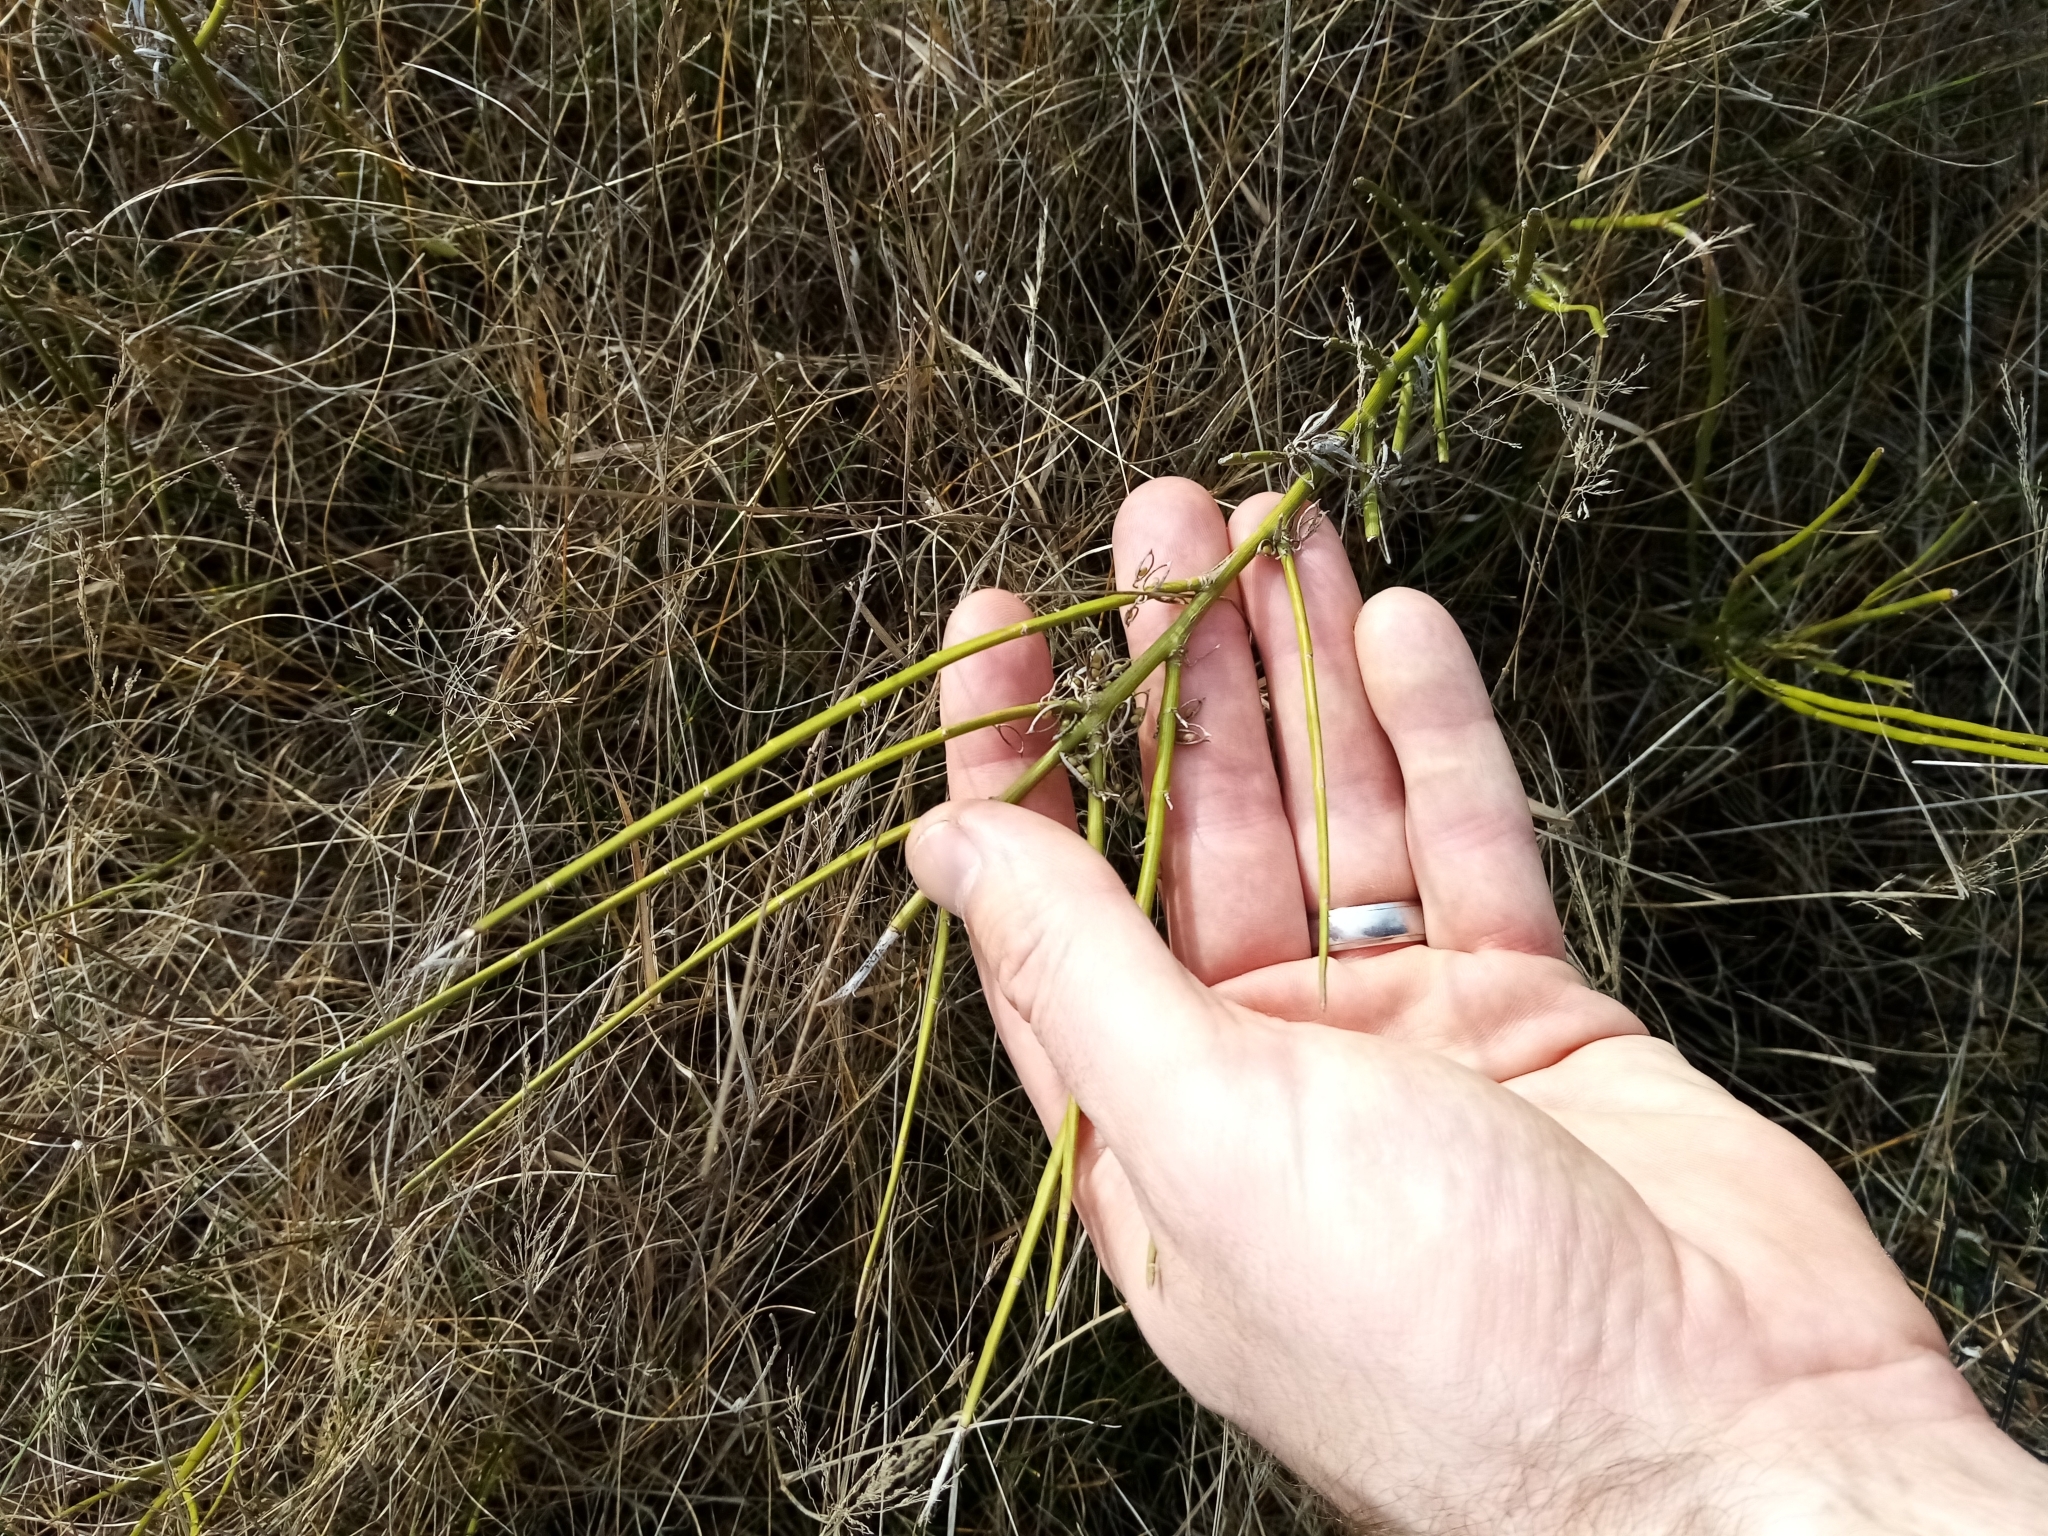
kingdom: Plantae
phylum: Tracheophyta
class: Magnoliopsida
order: Fabales
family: Fabaceae
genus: Carmichaelia
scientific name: Carmichaelia australis
